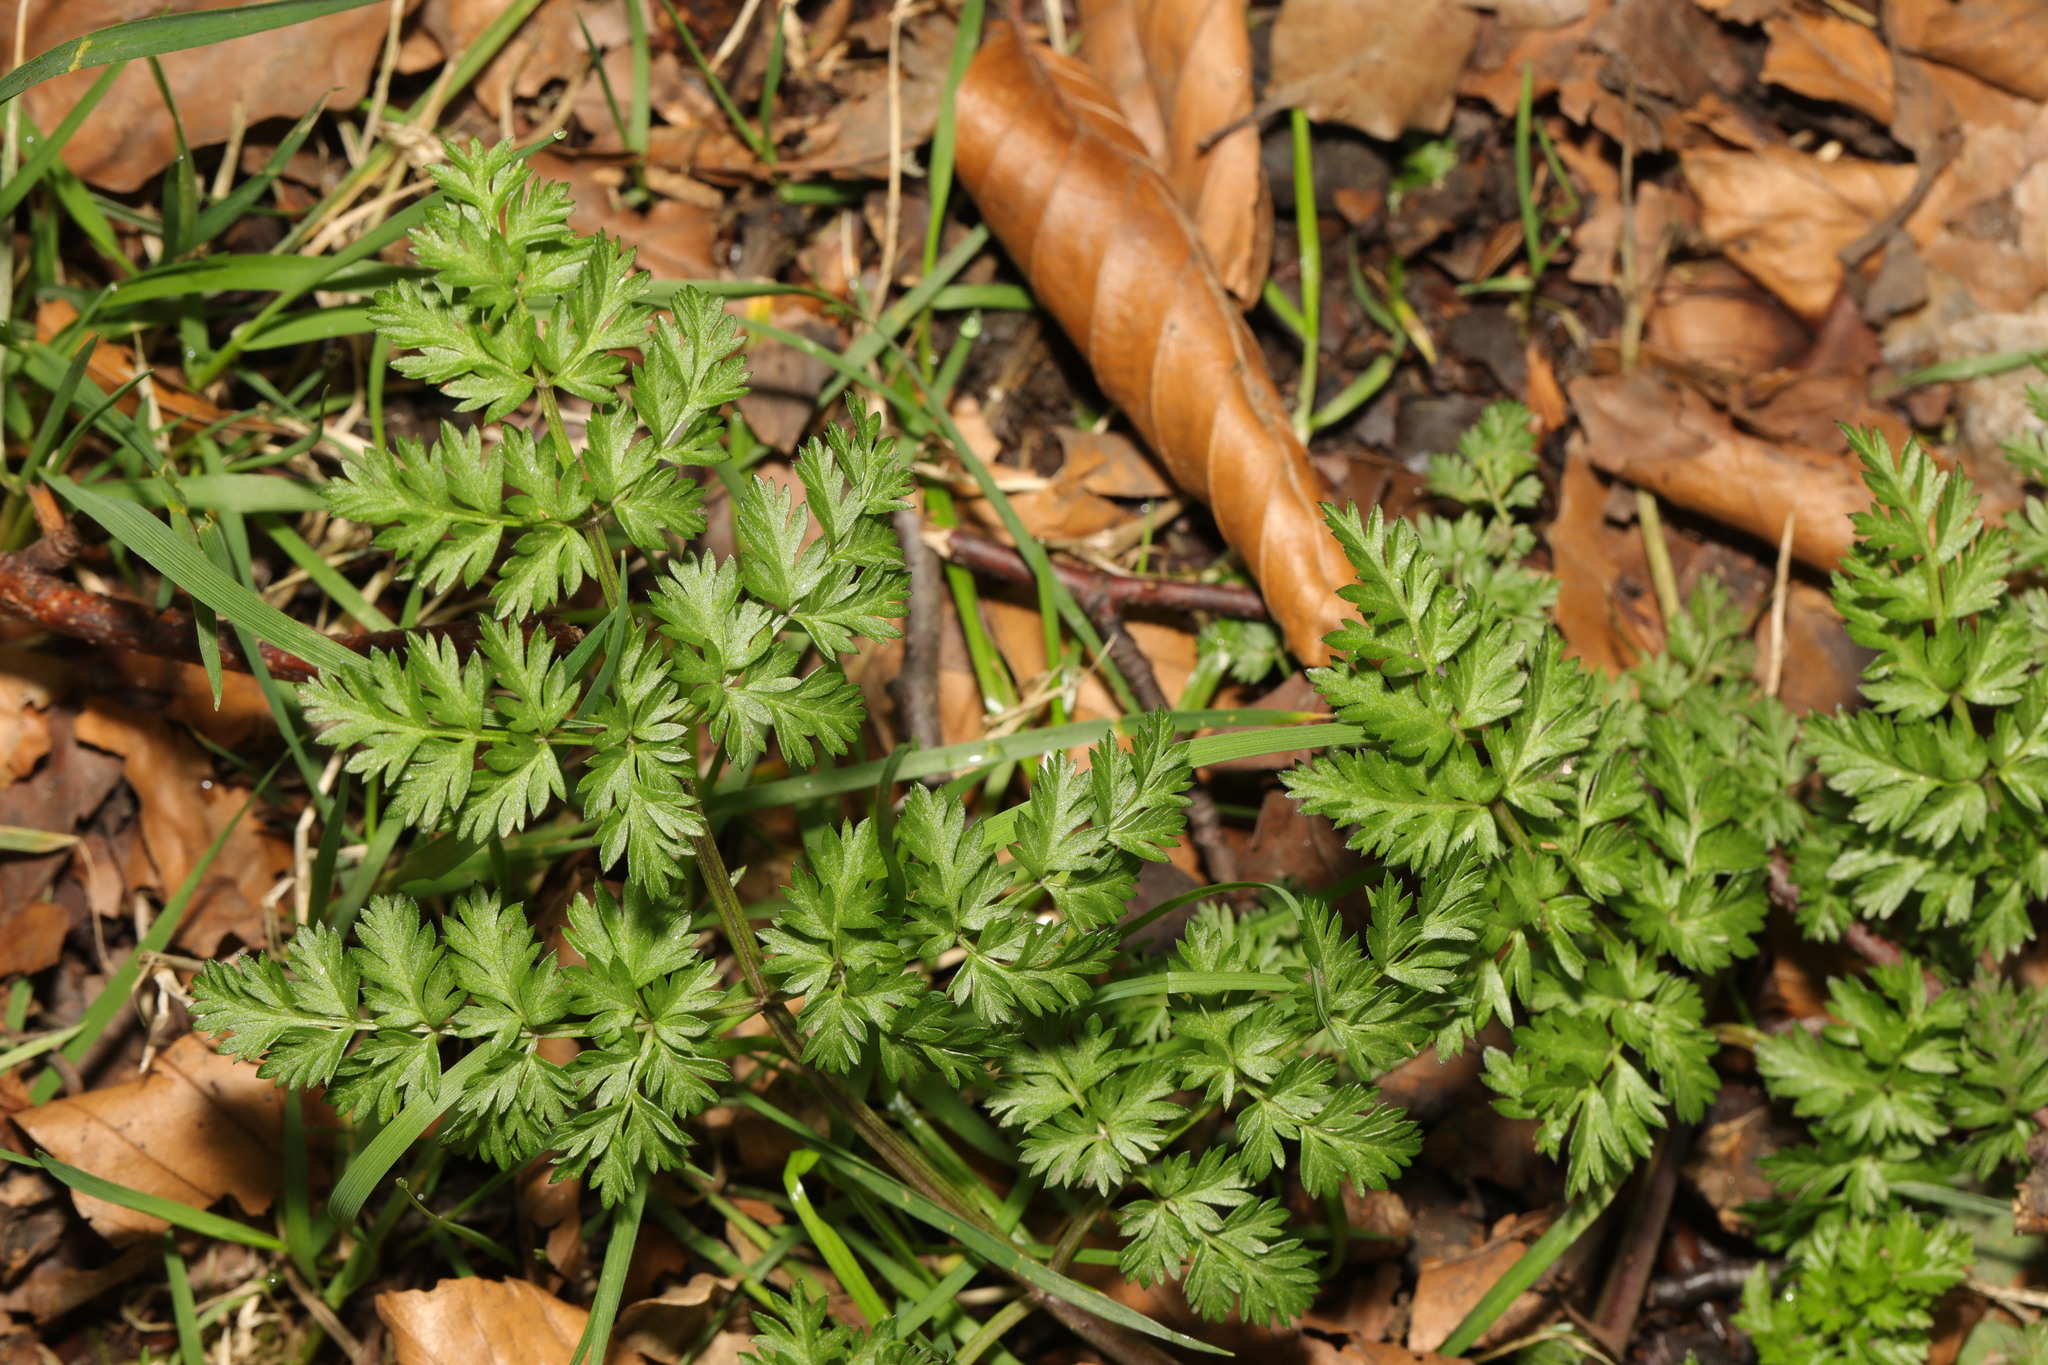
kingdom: Plantae
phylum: Tracheophyta
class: Magnoliopsida
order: Apiales
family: Apiaceae
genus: Anthriscus
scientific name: Anthriscus sylvestris
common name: Cow parsley
